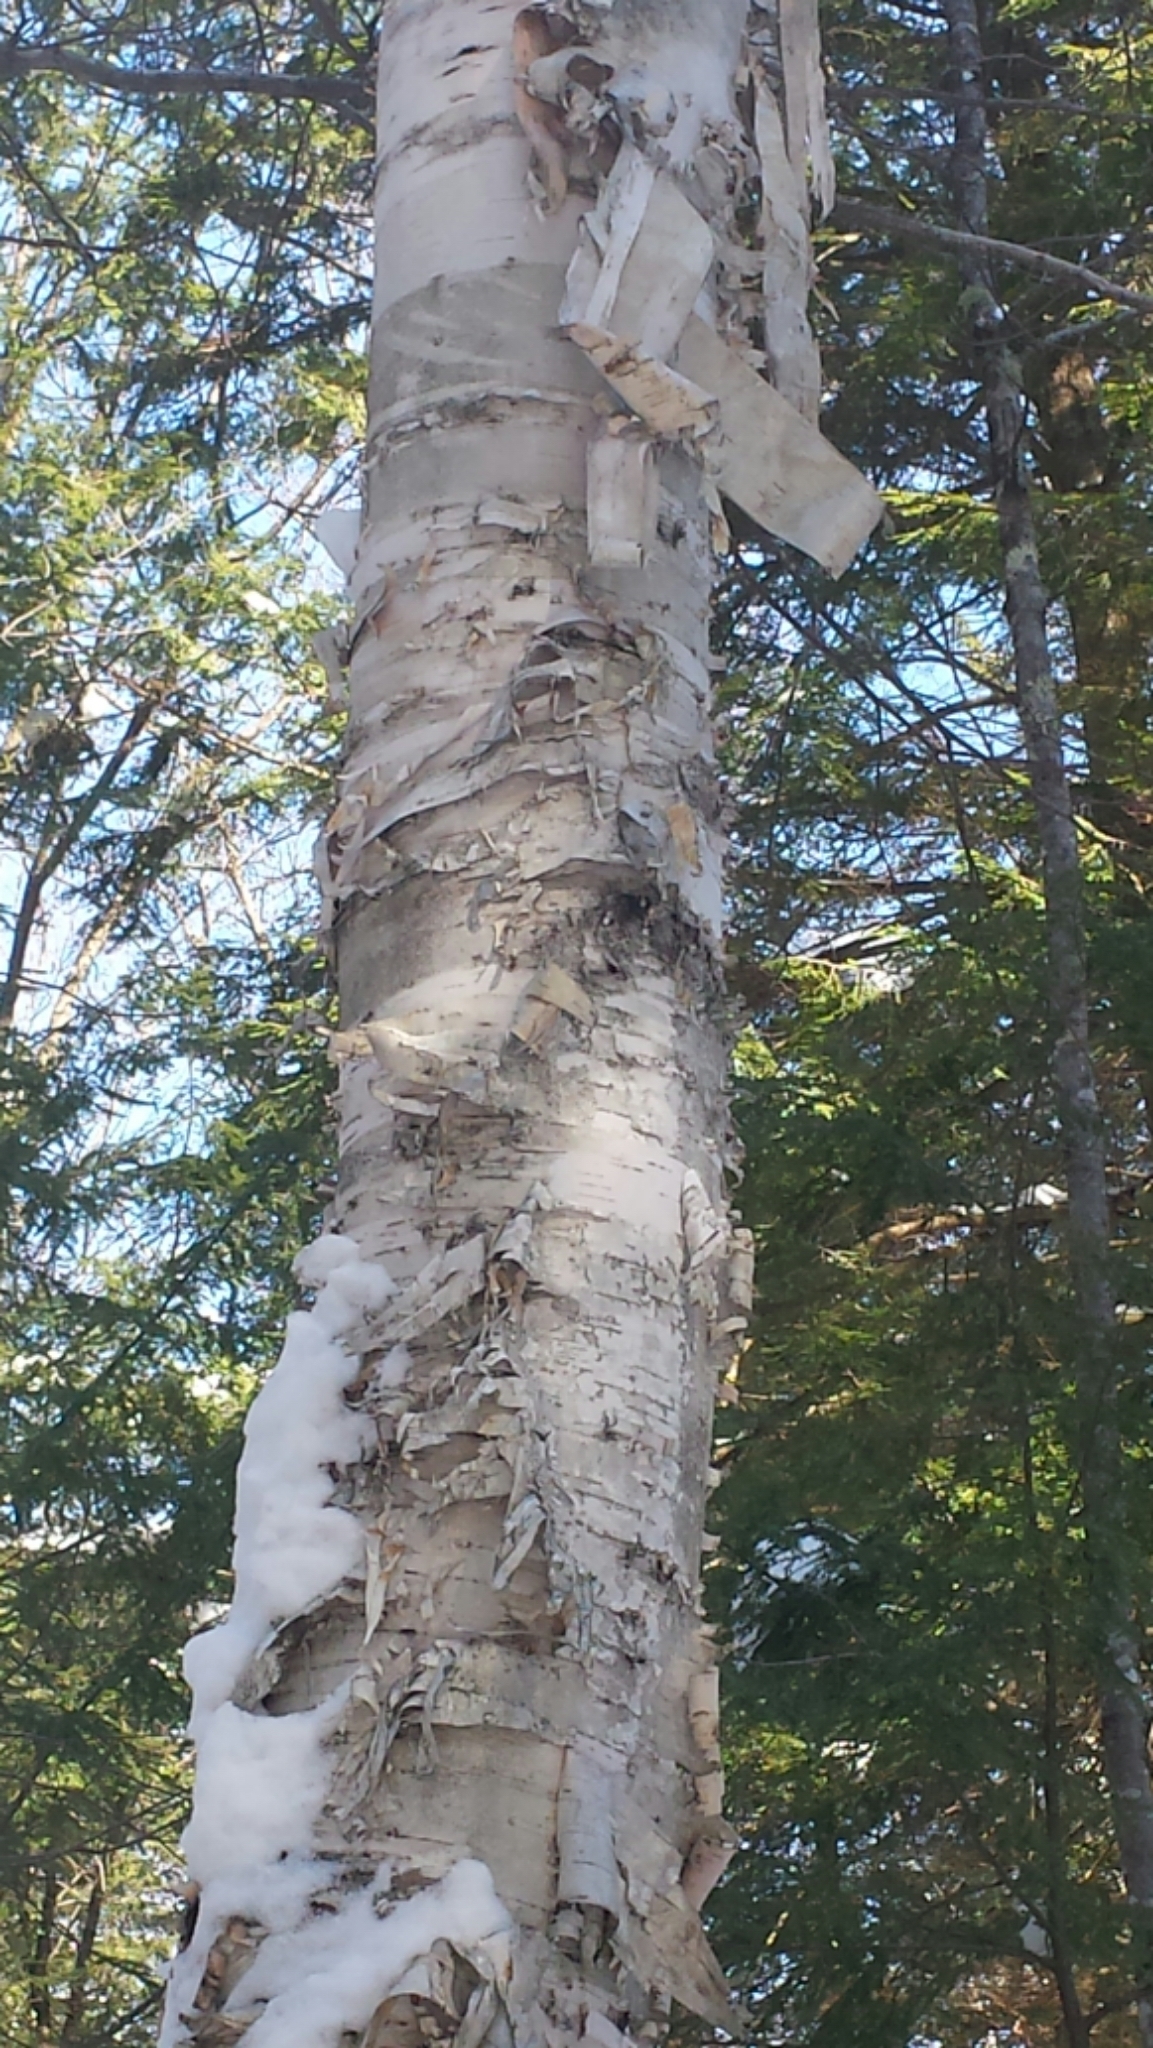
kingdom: Plantae
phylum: Tracheophyta
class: Magnoliopsida
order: Fagales
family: Betulaceae
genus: Betula
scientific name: Betula papyrifera
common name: Paper birch
